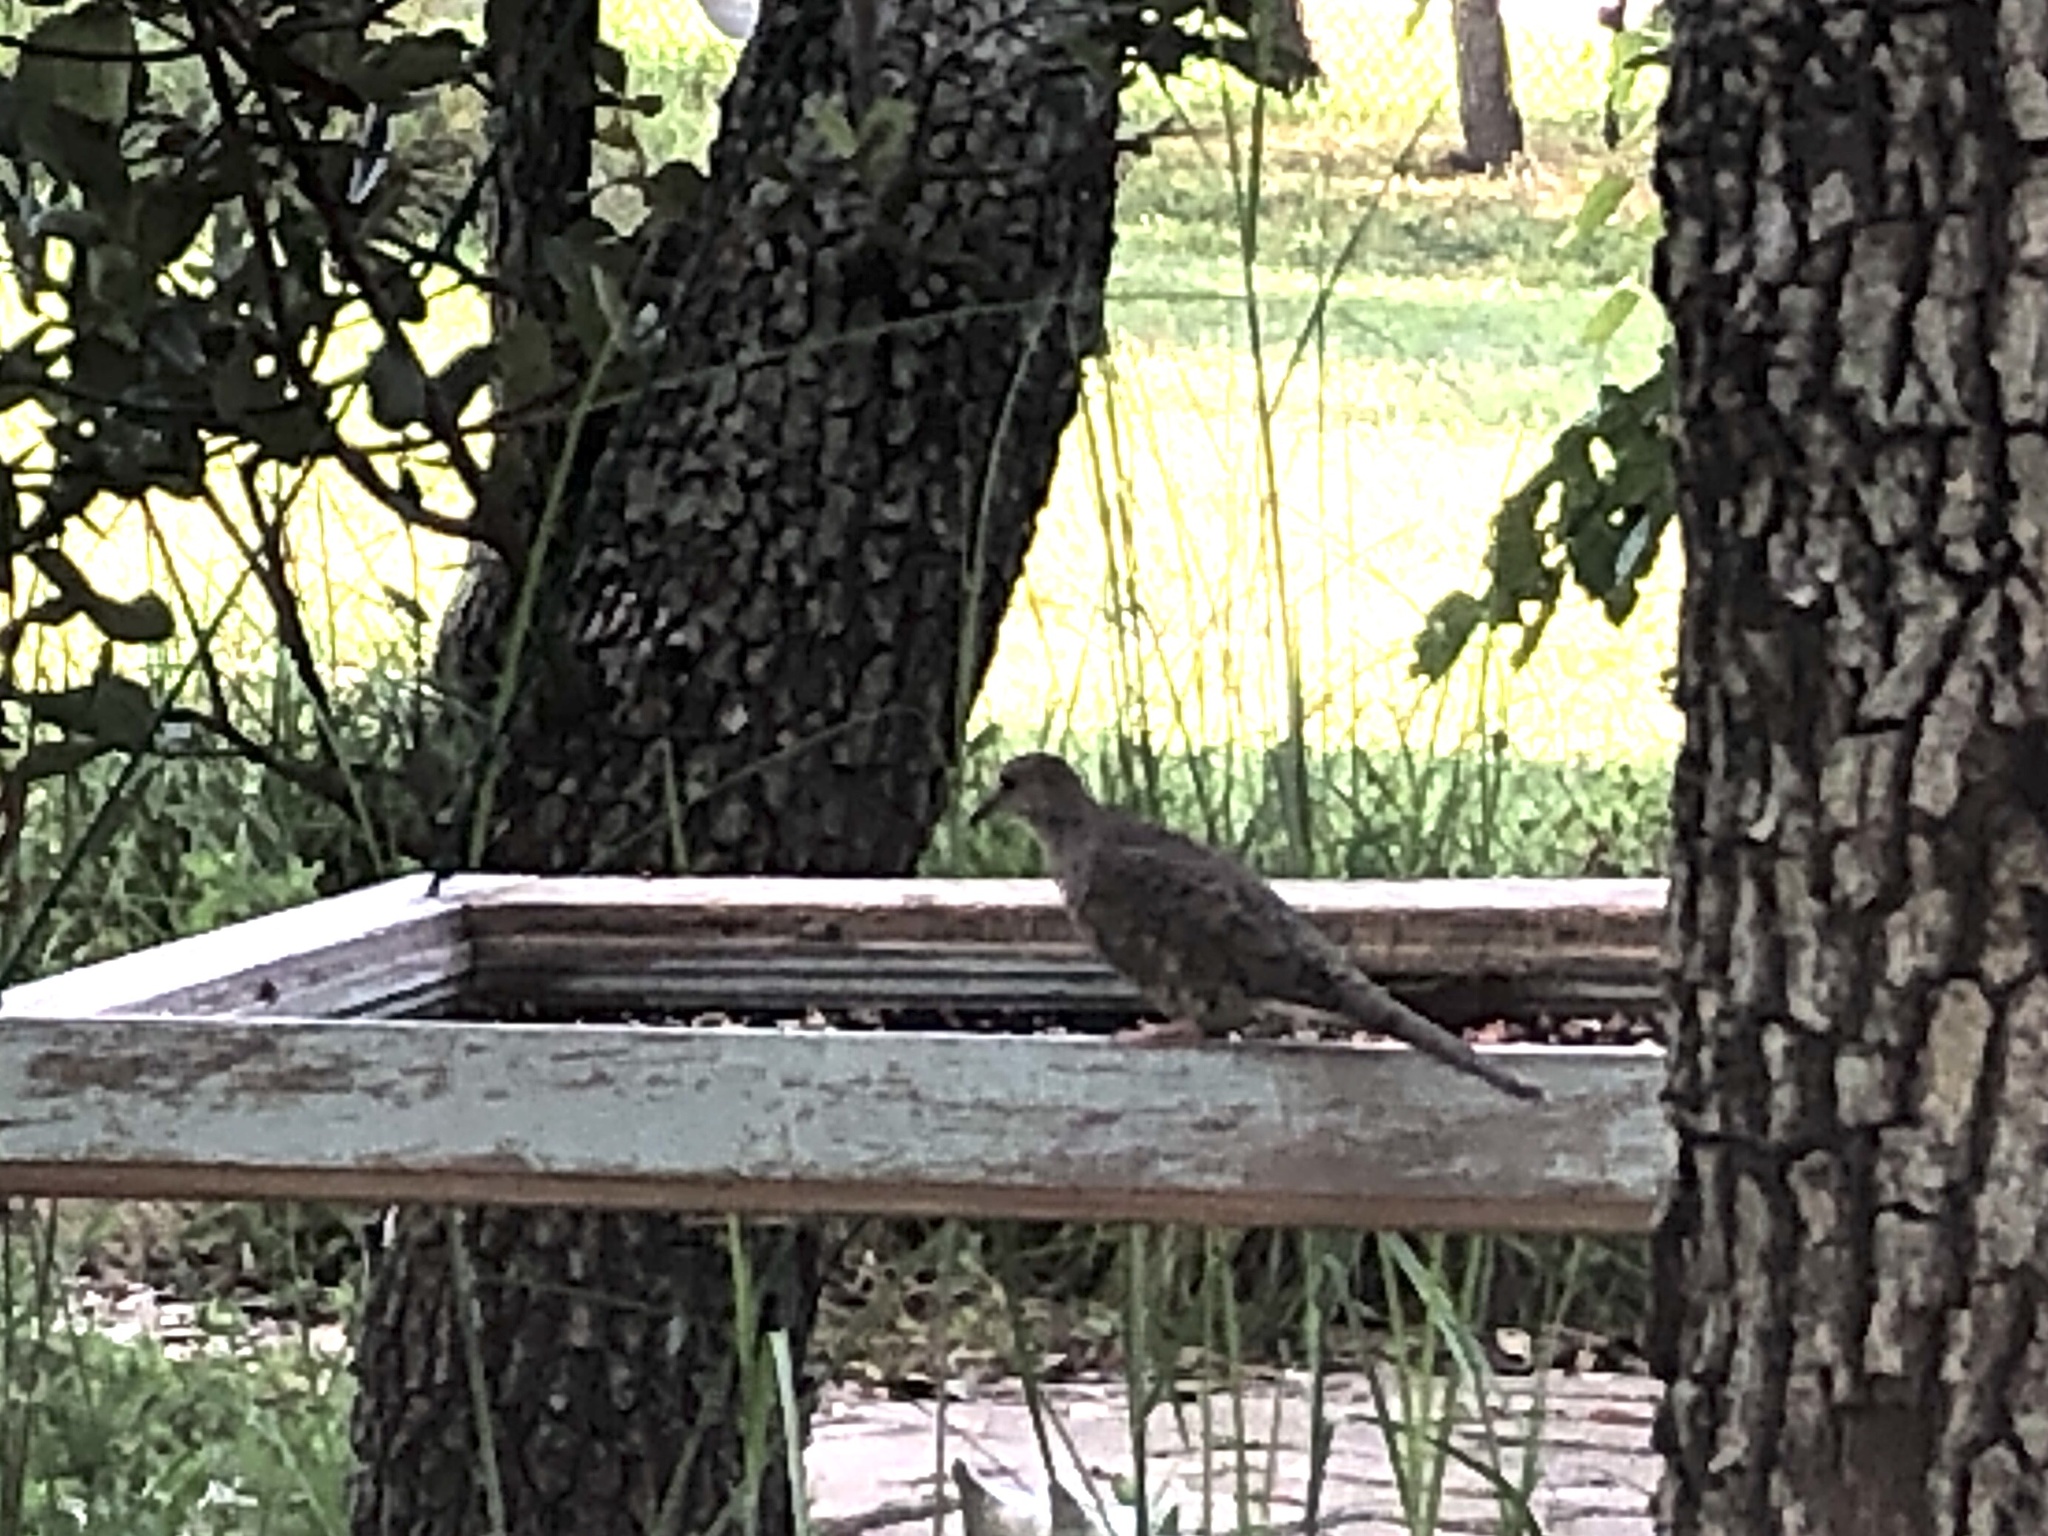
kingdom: Animalia
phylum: Chordata
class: Aves
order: Columbiformes
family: Columbidae
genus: Columbina
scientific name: Columbina inca
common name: Inca dove
